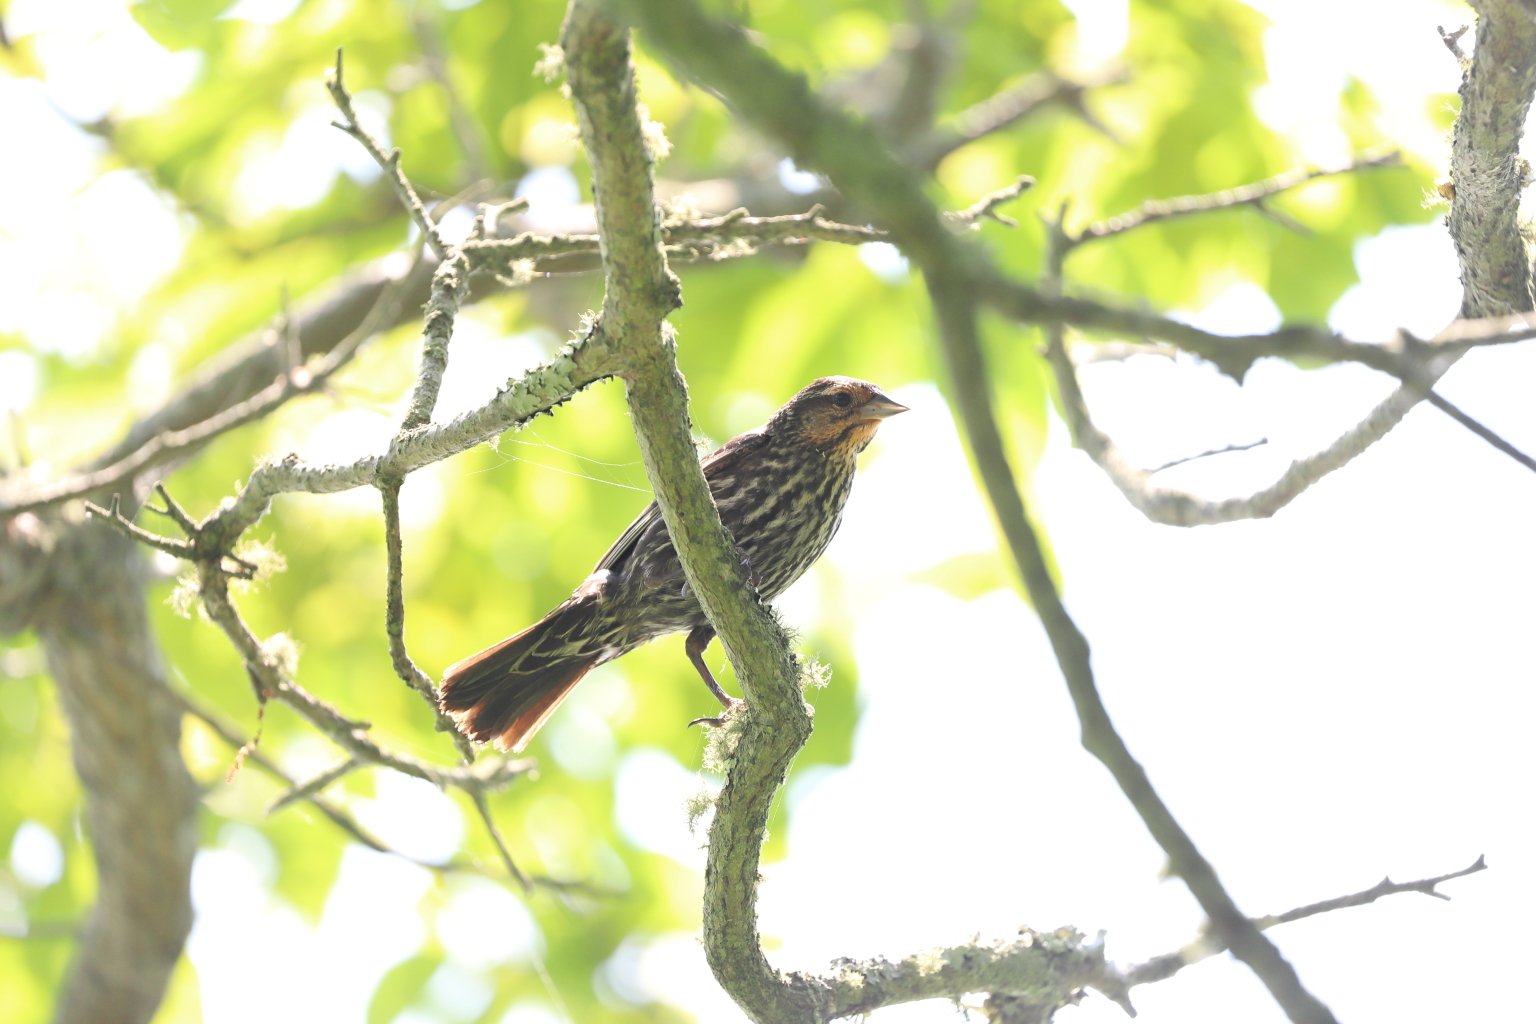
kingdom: Animalia
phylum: Chordata
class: Aves
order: Passeriformes
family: Icteridae
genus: Agelaius
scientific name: Agelaius phoeniceus
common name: Red-winged blackbird
